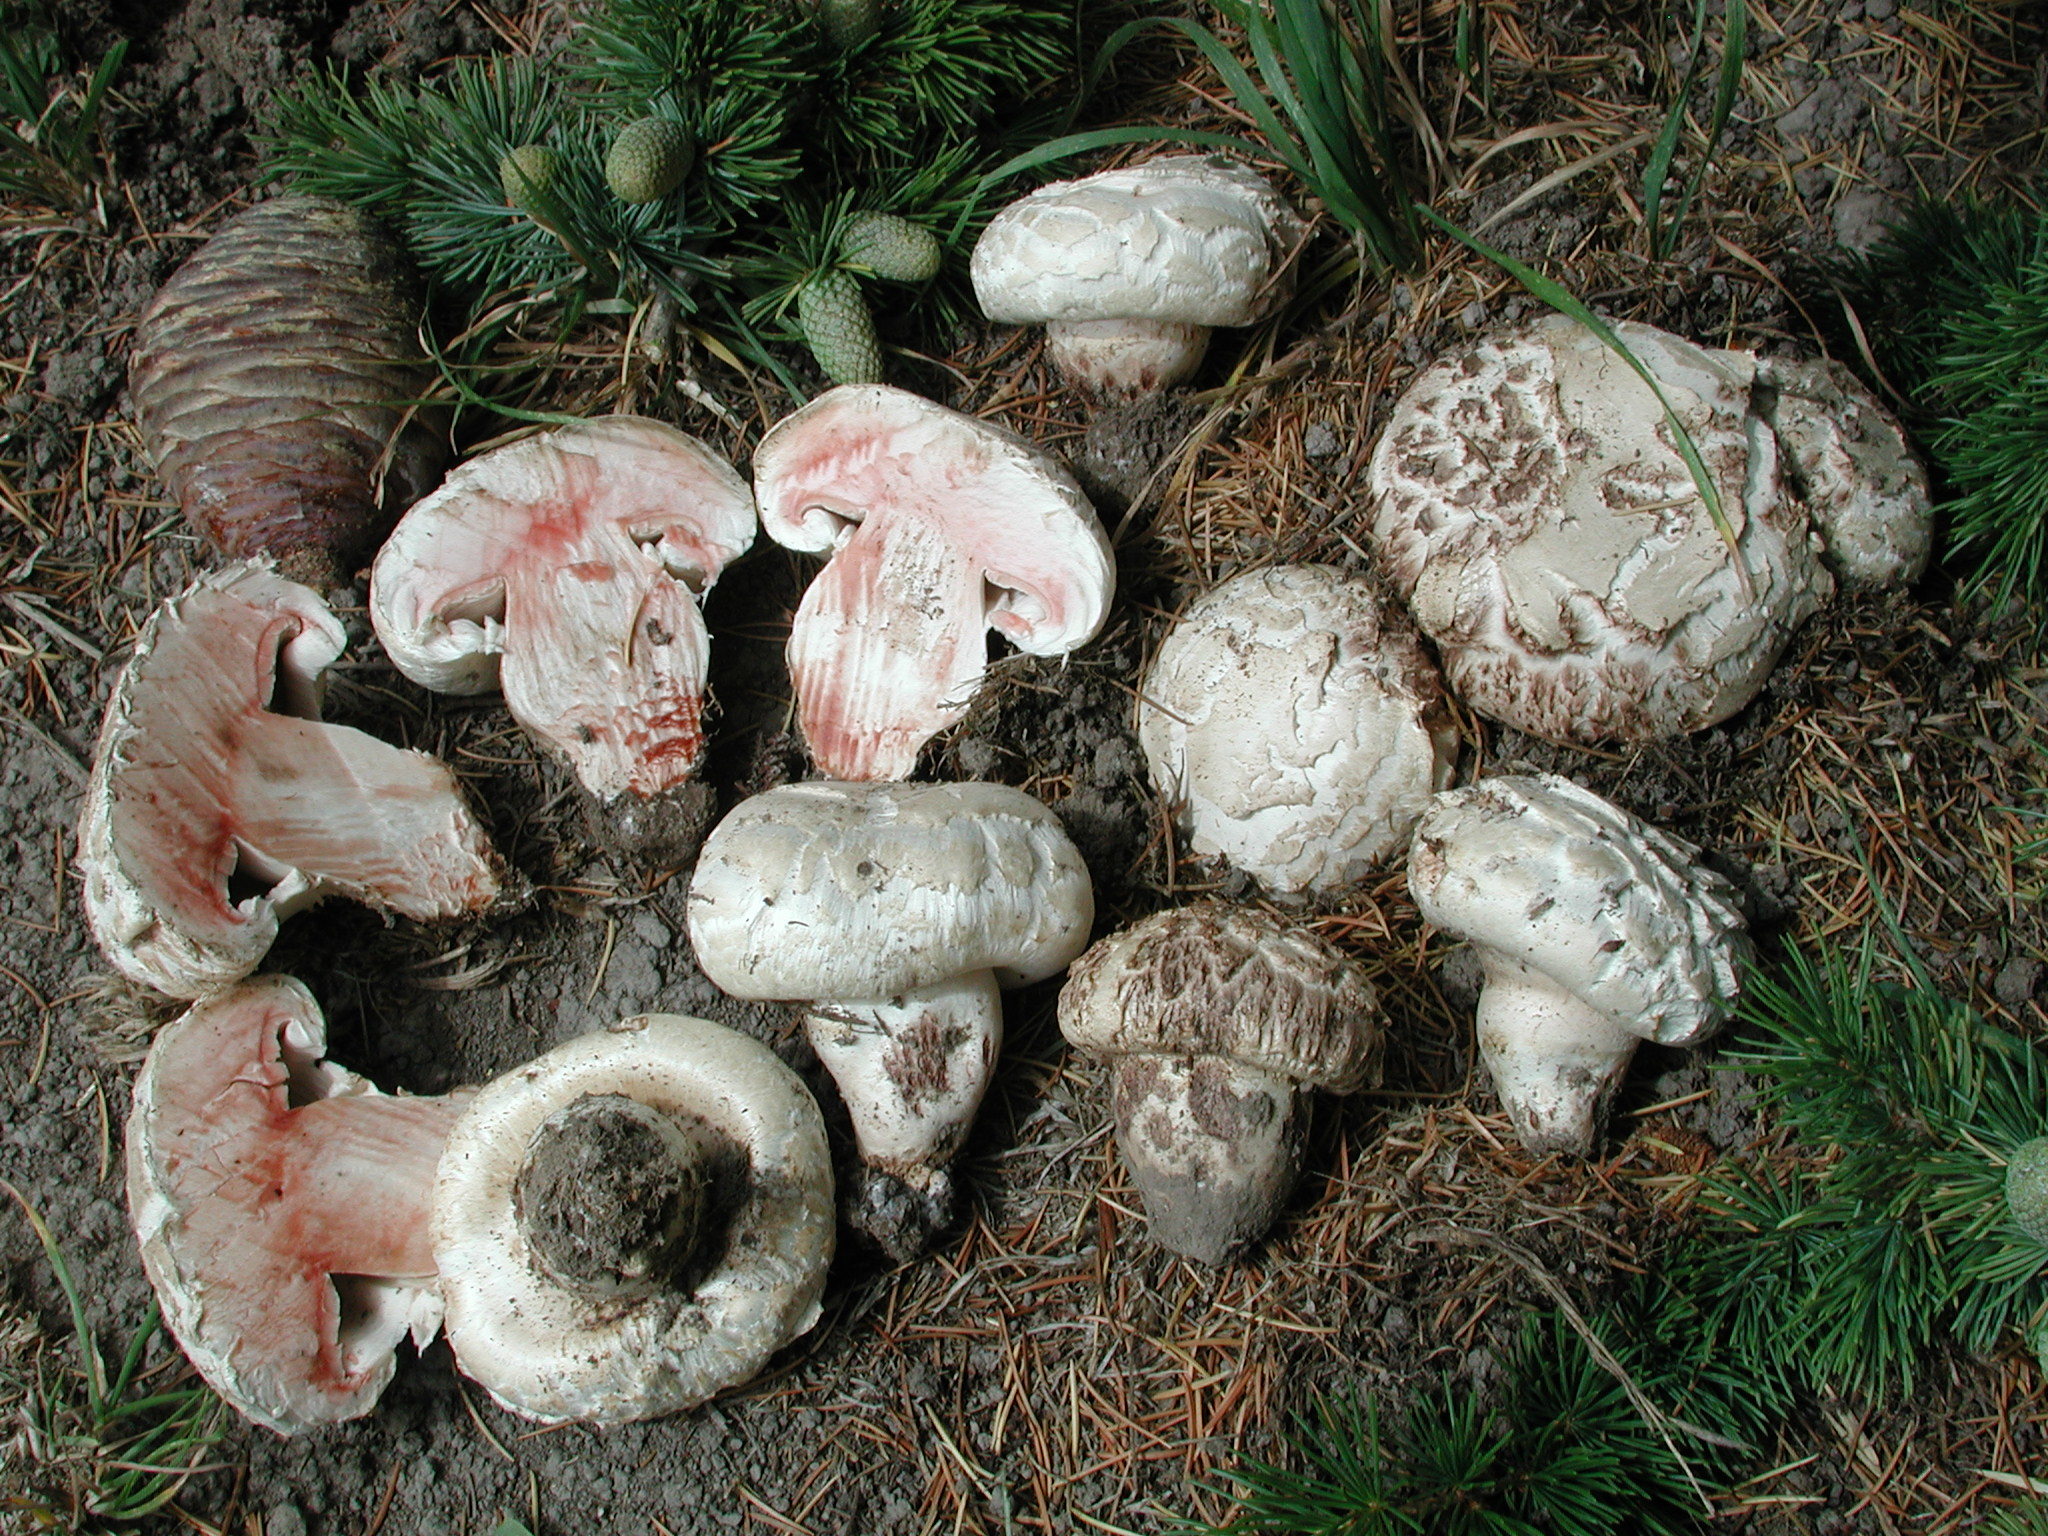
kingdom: Fungi
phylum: Basidiomycota
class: Agaricomycetes
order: Agaricales
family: Agaricaceae
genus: Agaricus
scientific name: Agaricus bernardii
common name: Salty mushroom
